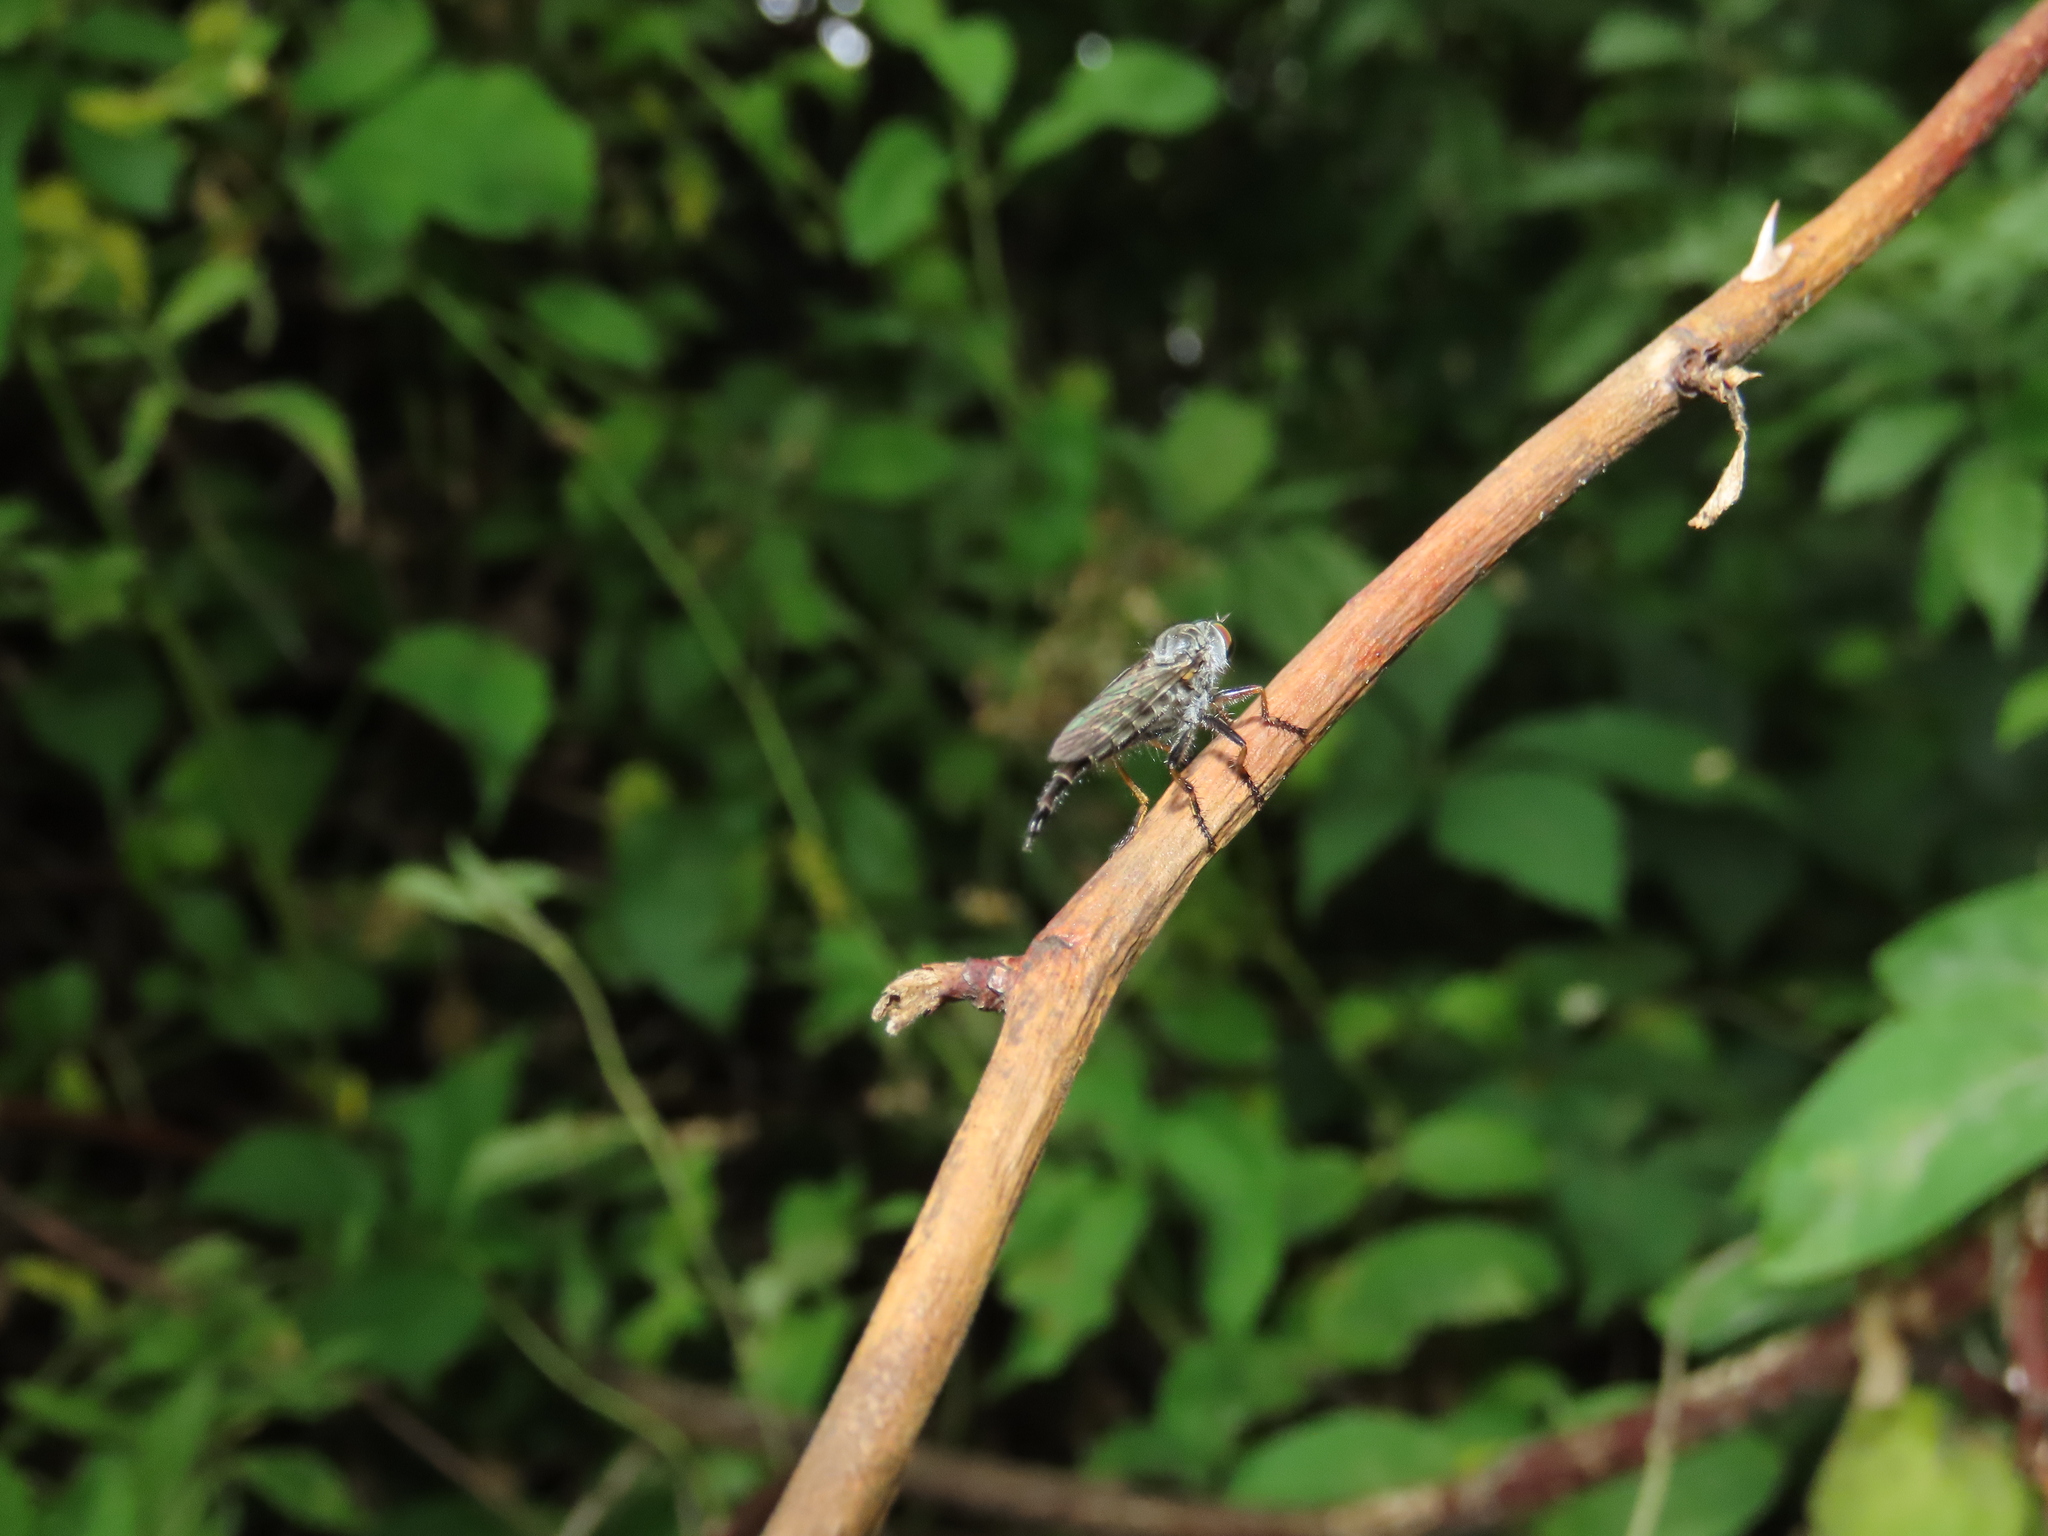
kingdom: Animalia
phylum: Arthropoda
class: Insecta
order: Diptera
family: Asilidae
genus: Asilus
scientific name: Asilus flavofemoratus
